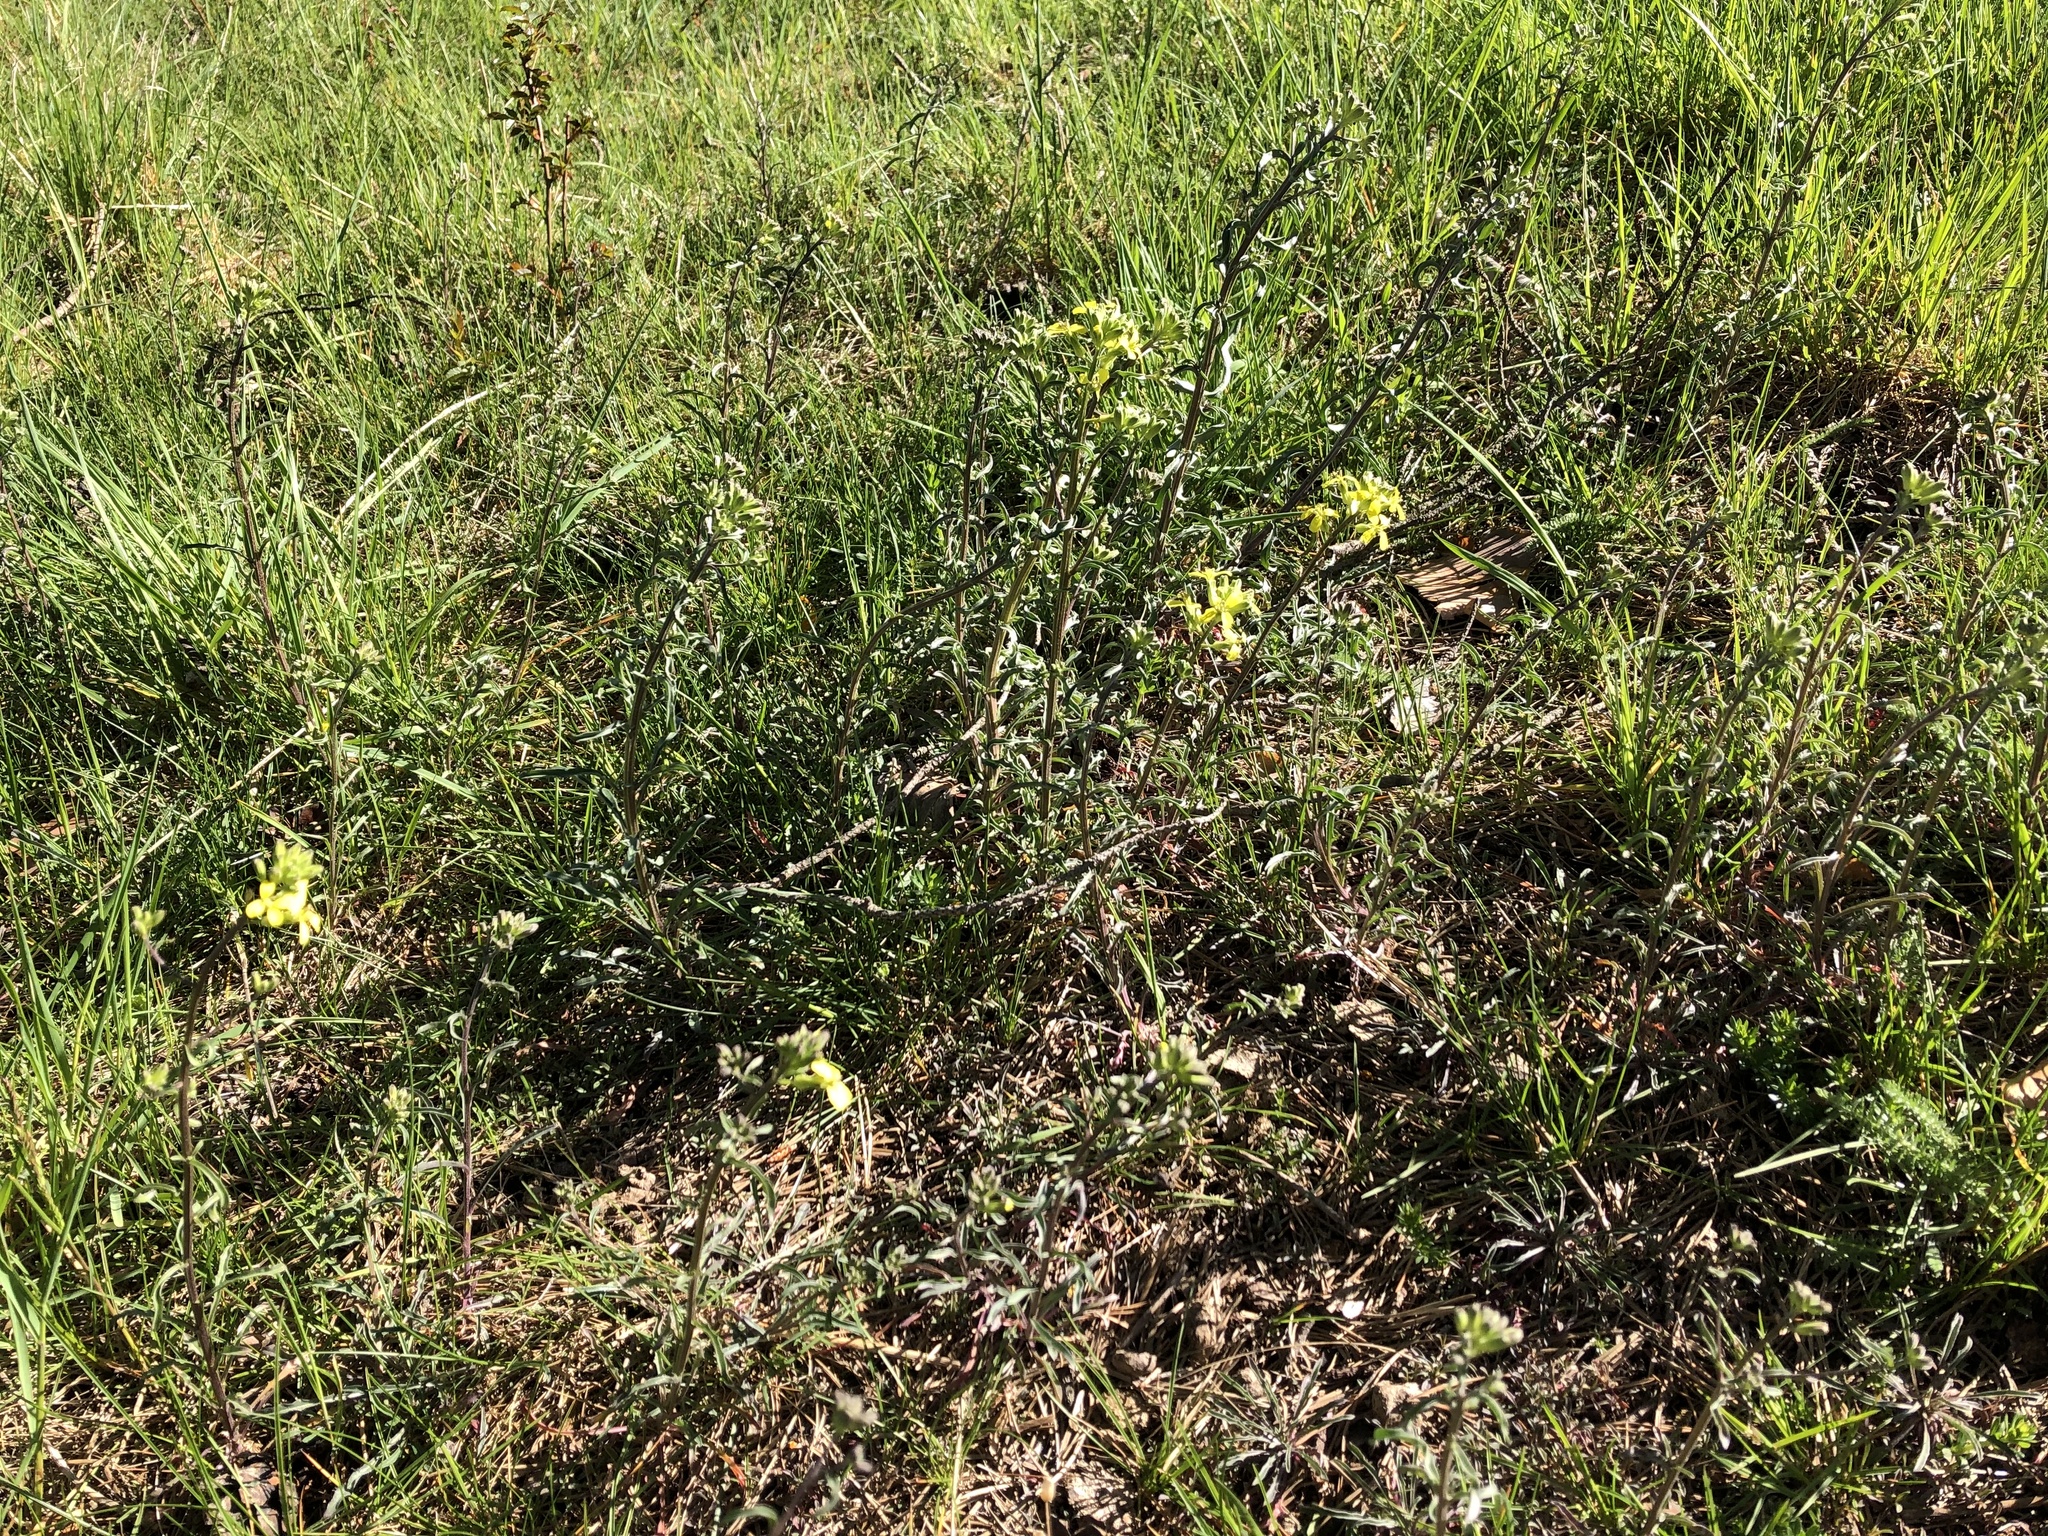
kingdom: Plantae
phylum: Tracheophyta
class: Magnoliopsida
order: Brassicales
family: Brassicaceae
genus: Erysimum
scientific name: Erysimum crepidifolium
